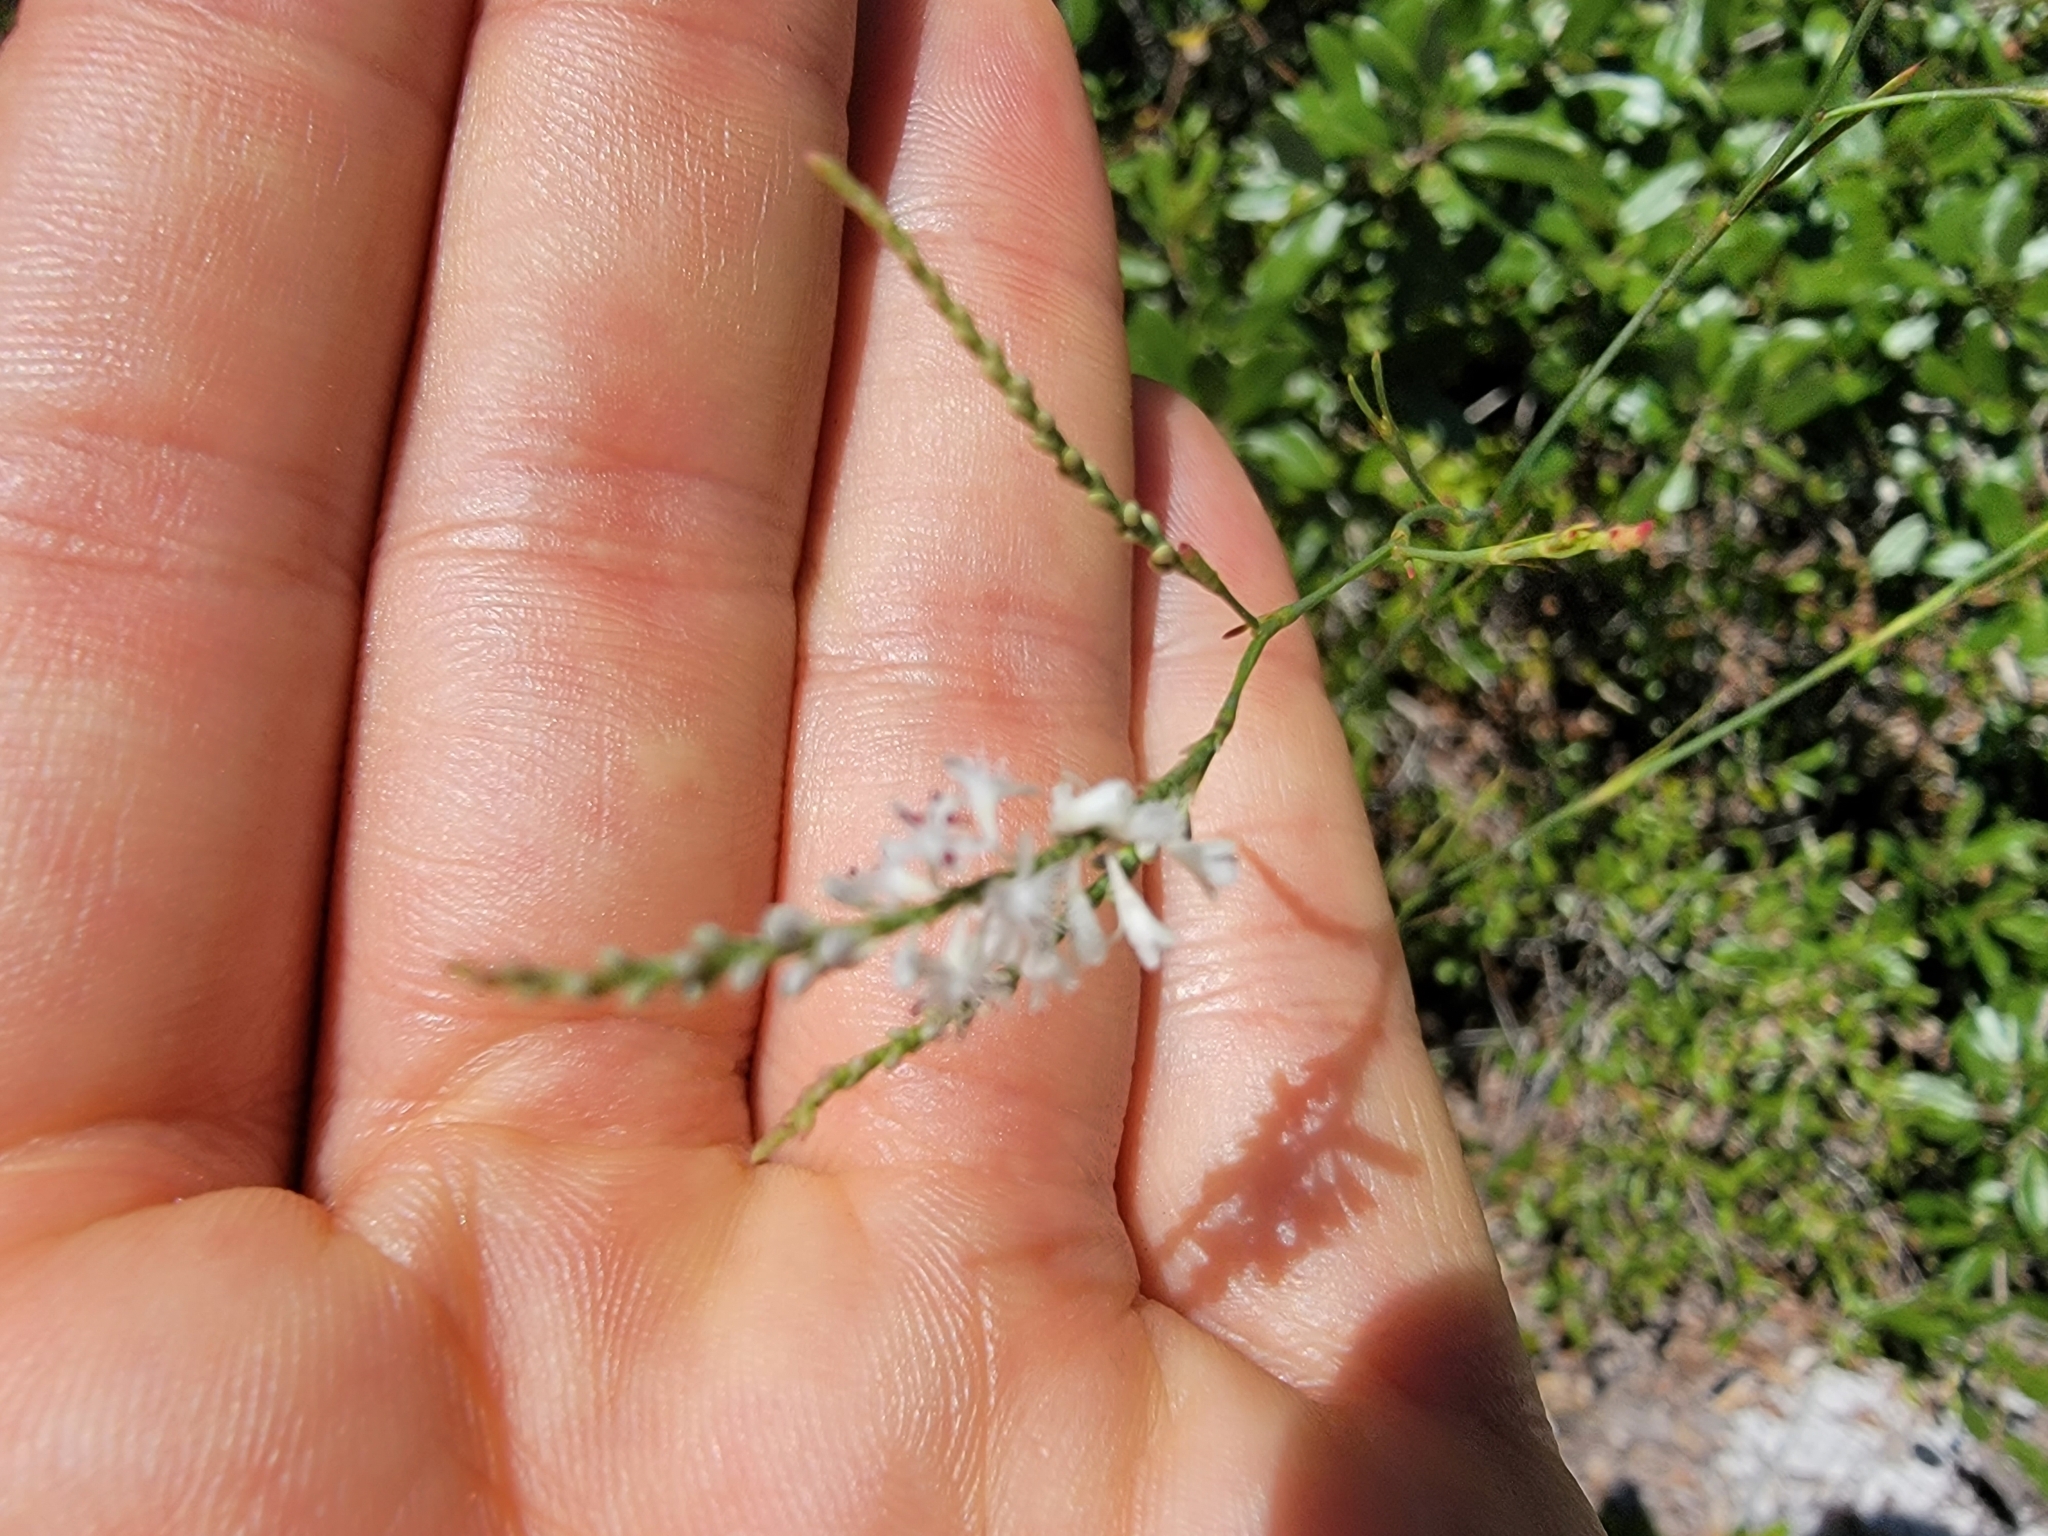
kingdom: Plantae
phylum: Tracheophyta
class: Magnoliopsida
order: Caryophyllales
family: Polygonaceae
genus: Polygonella
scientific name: Polygonella ciliata
